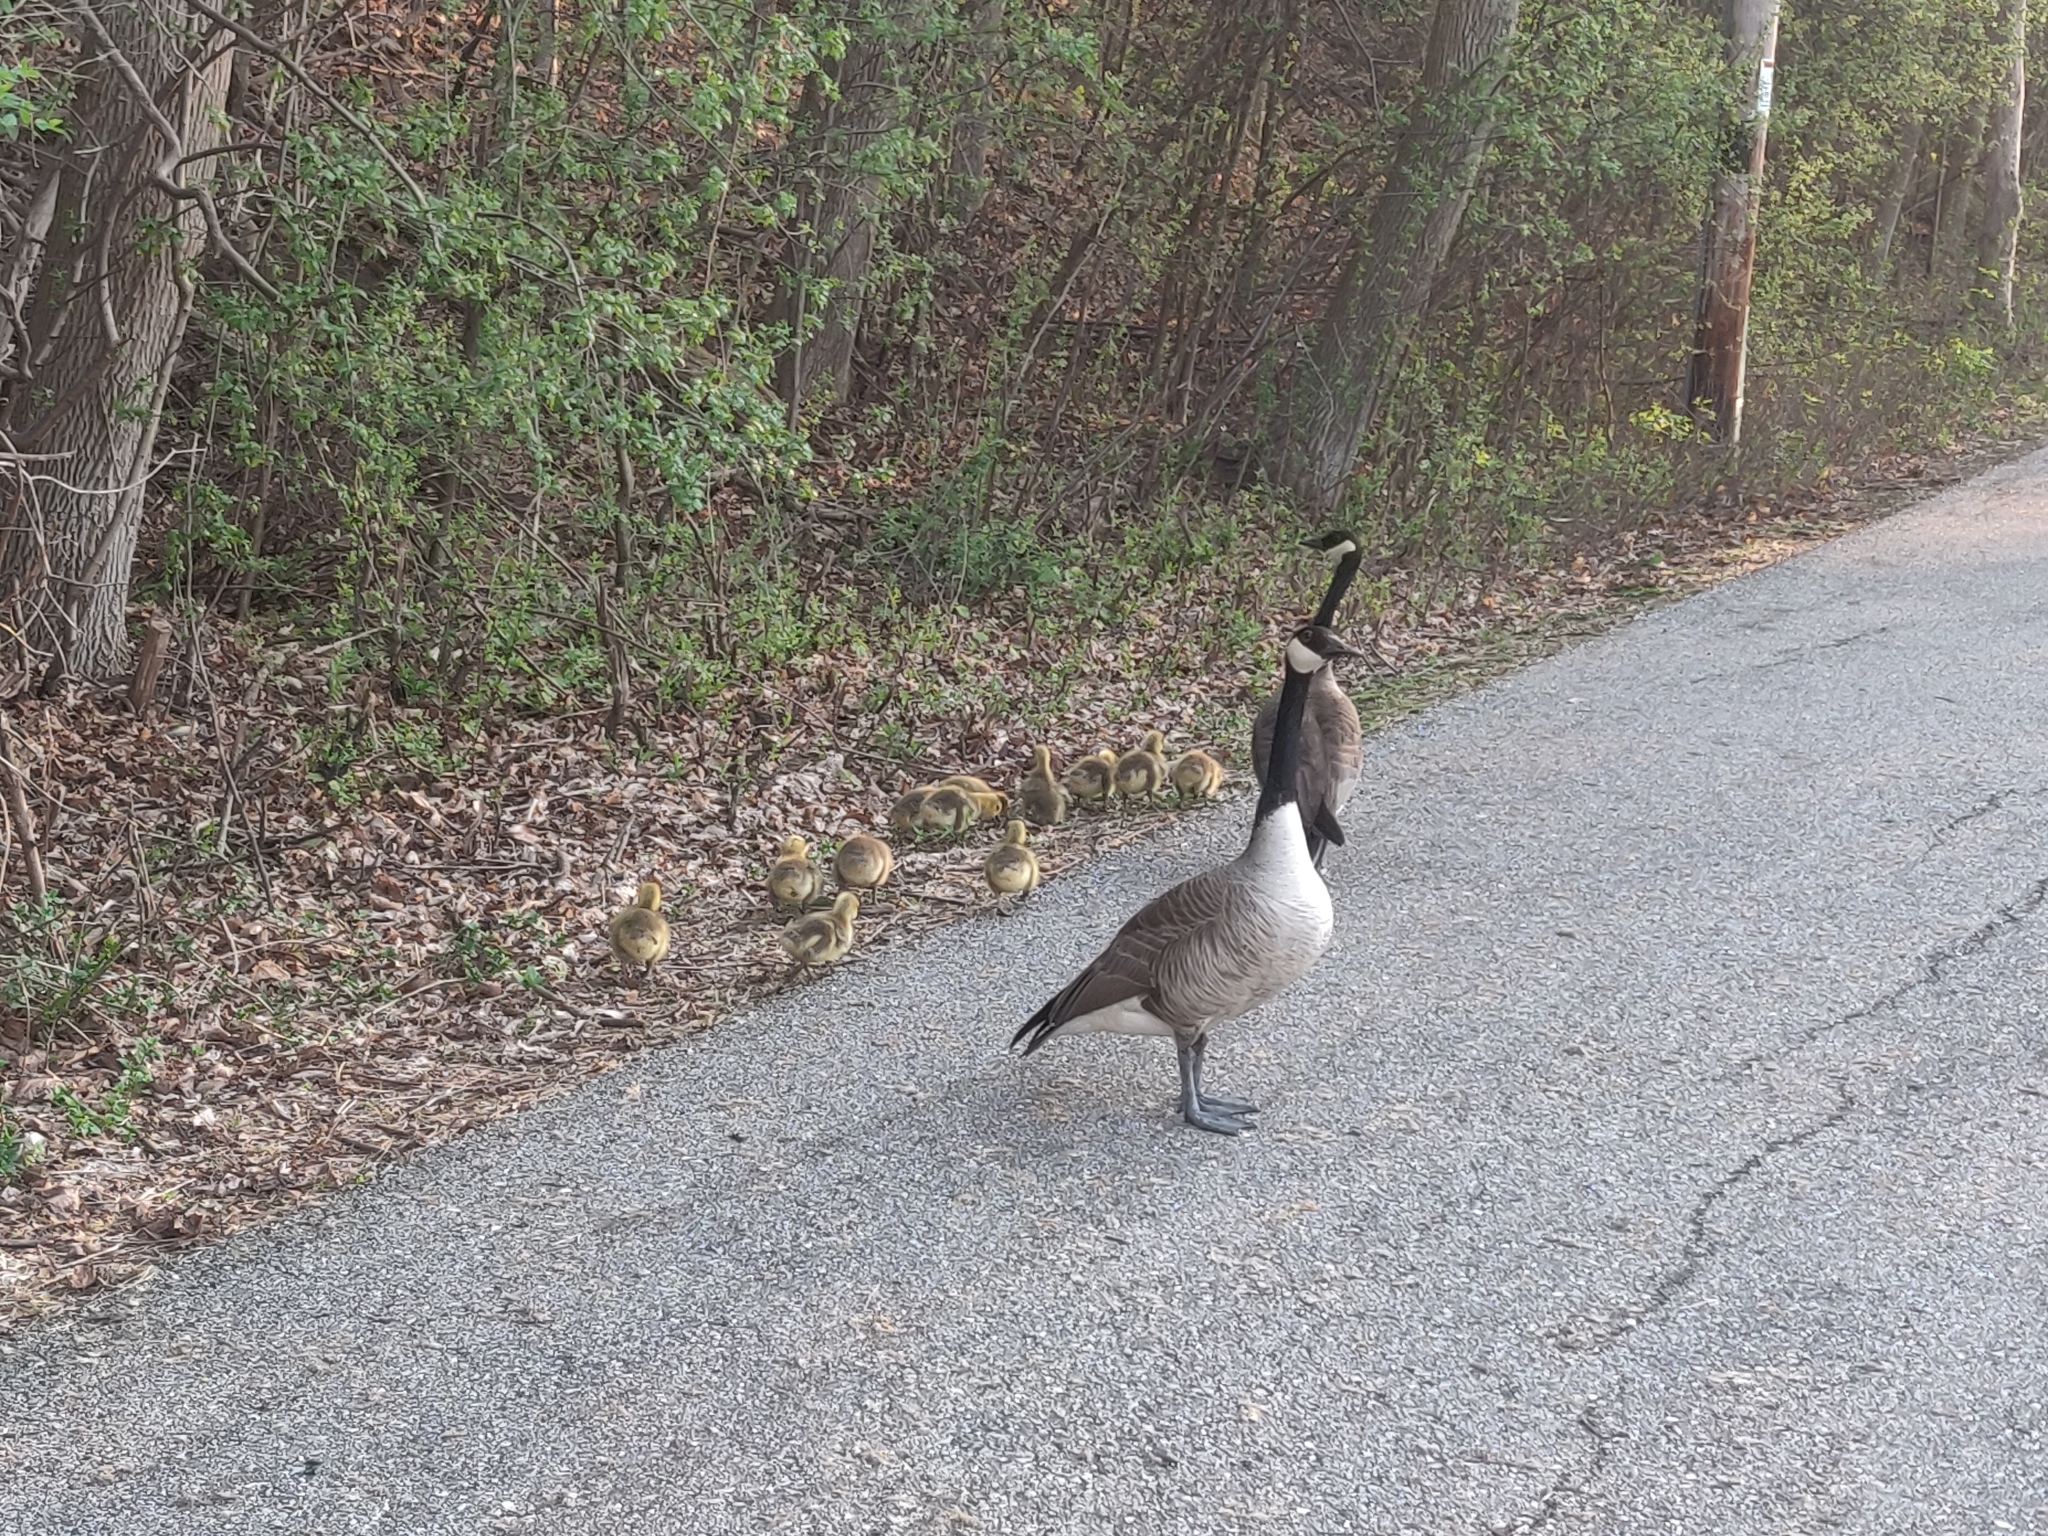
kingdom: Animalia
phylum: Chordata
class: Aves
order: Anseriformes
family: Anatidae
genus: Branta
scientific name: Branta canadensis
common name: Canada goose
